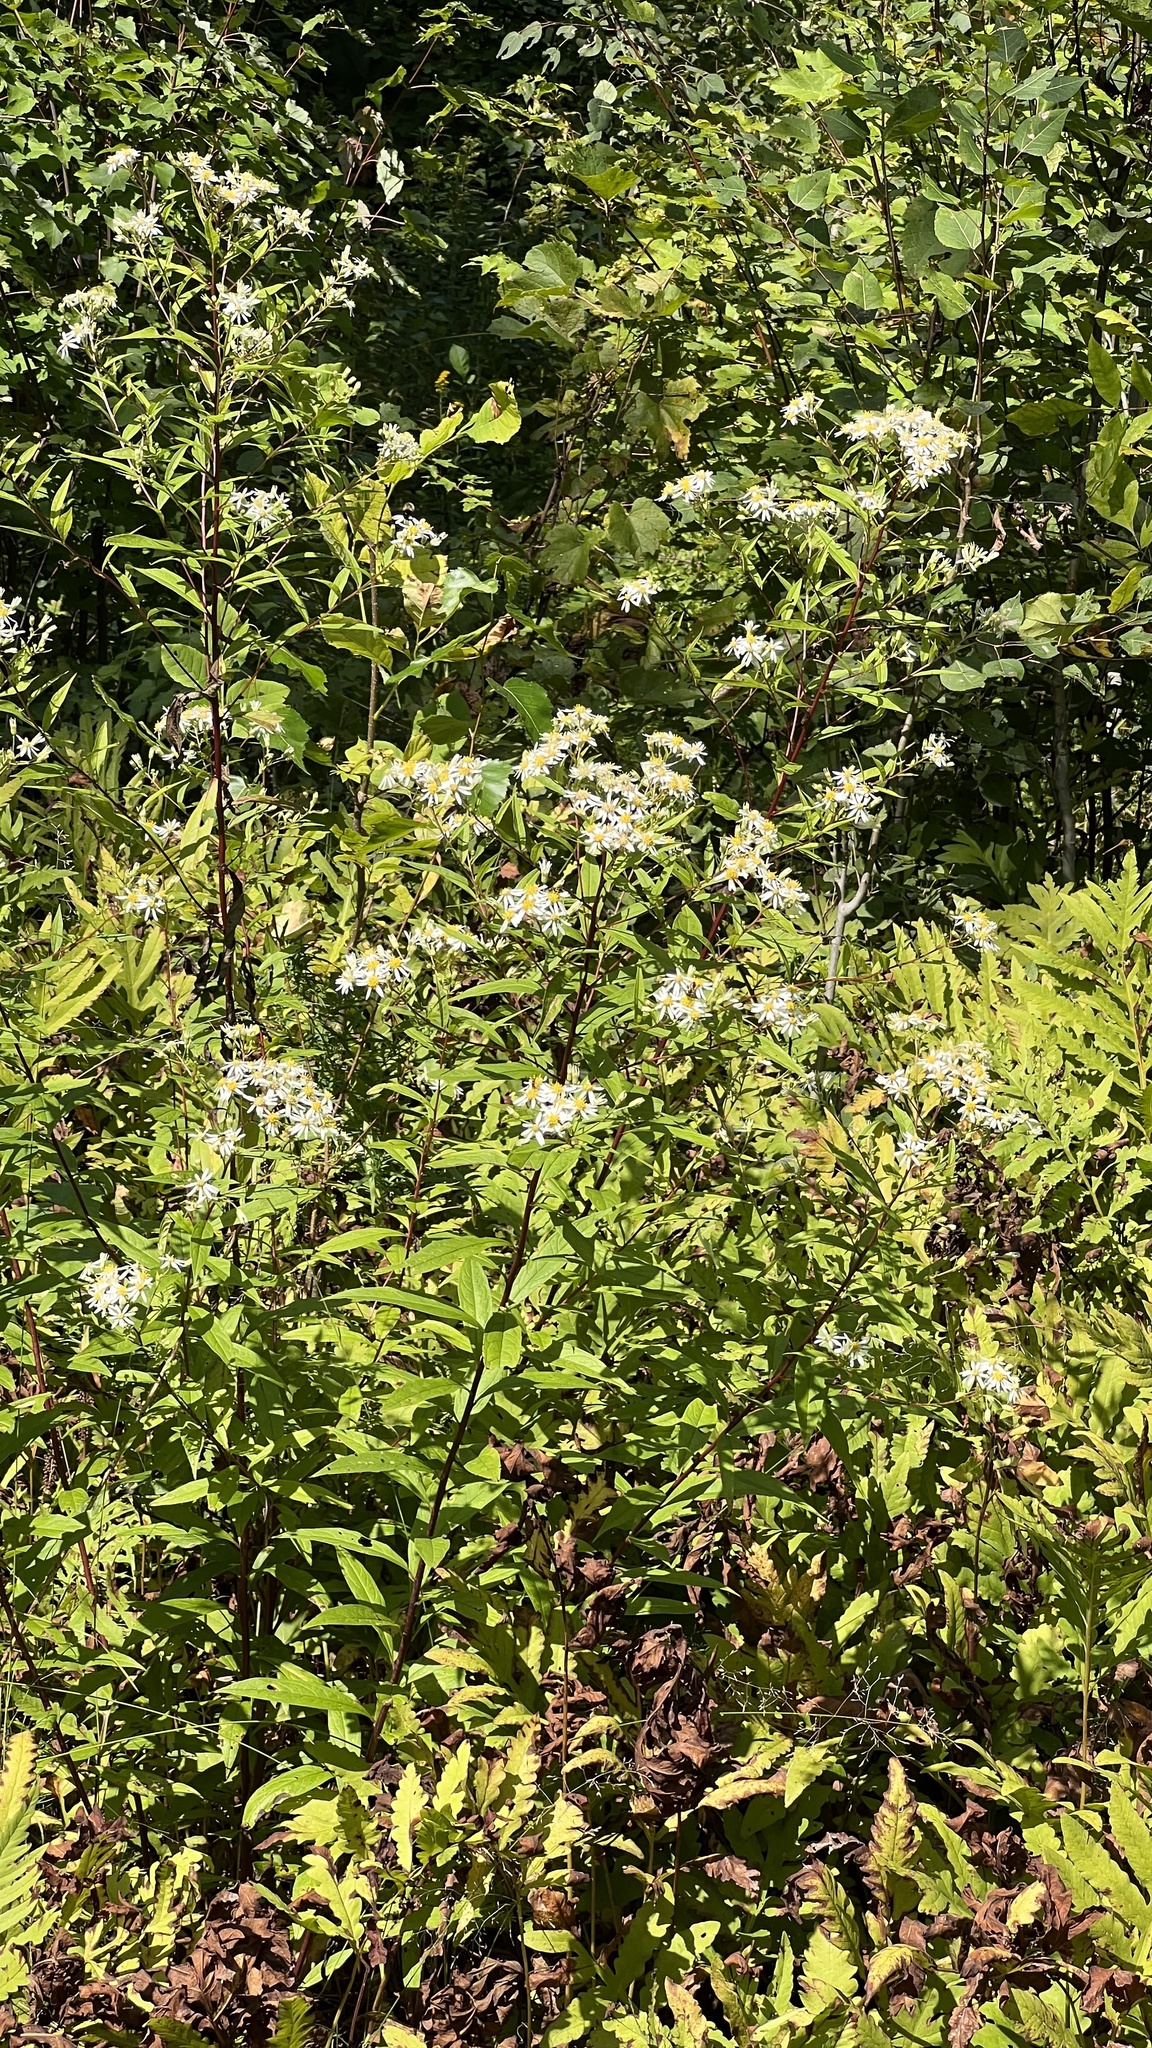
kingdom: Plantae
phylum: Tracheophyta
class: Magnoliopsida
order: Asterales
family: Asteraceae
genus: Doellingeria
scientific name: Doellingeria umbellata
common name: Flat-top white aster
